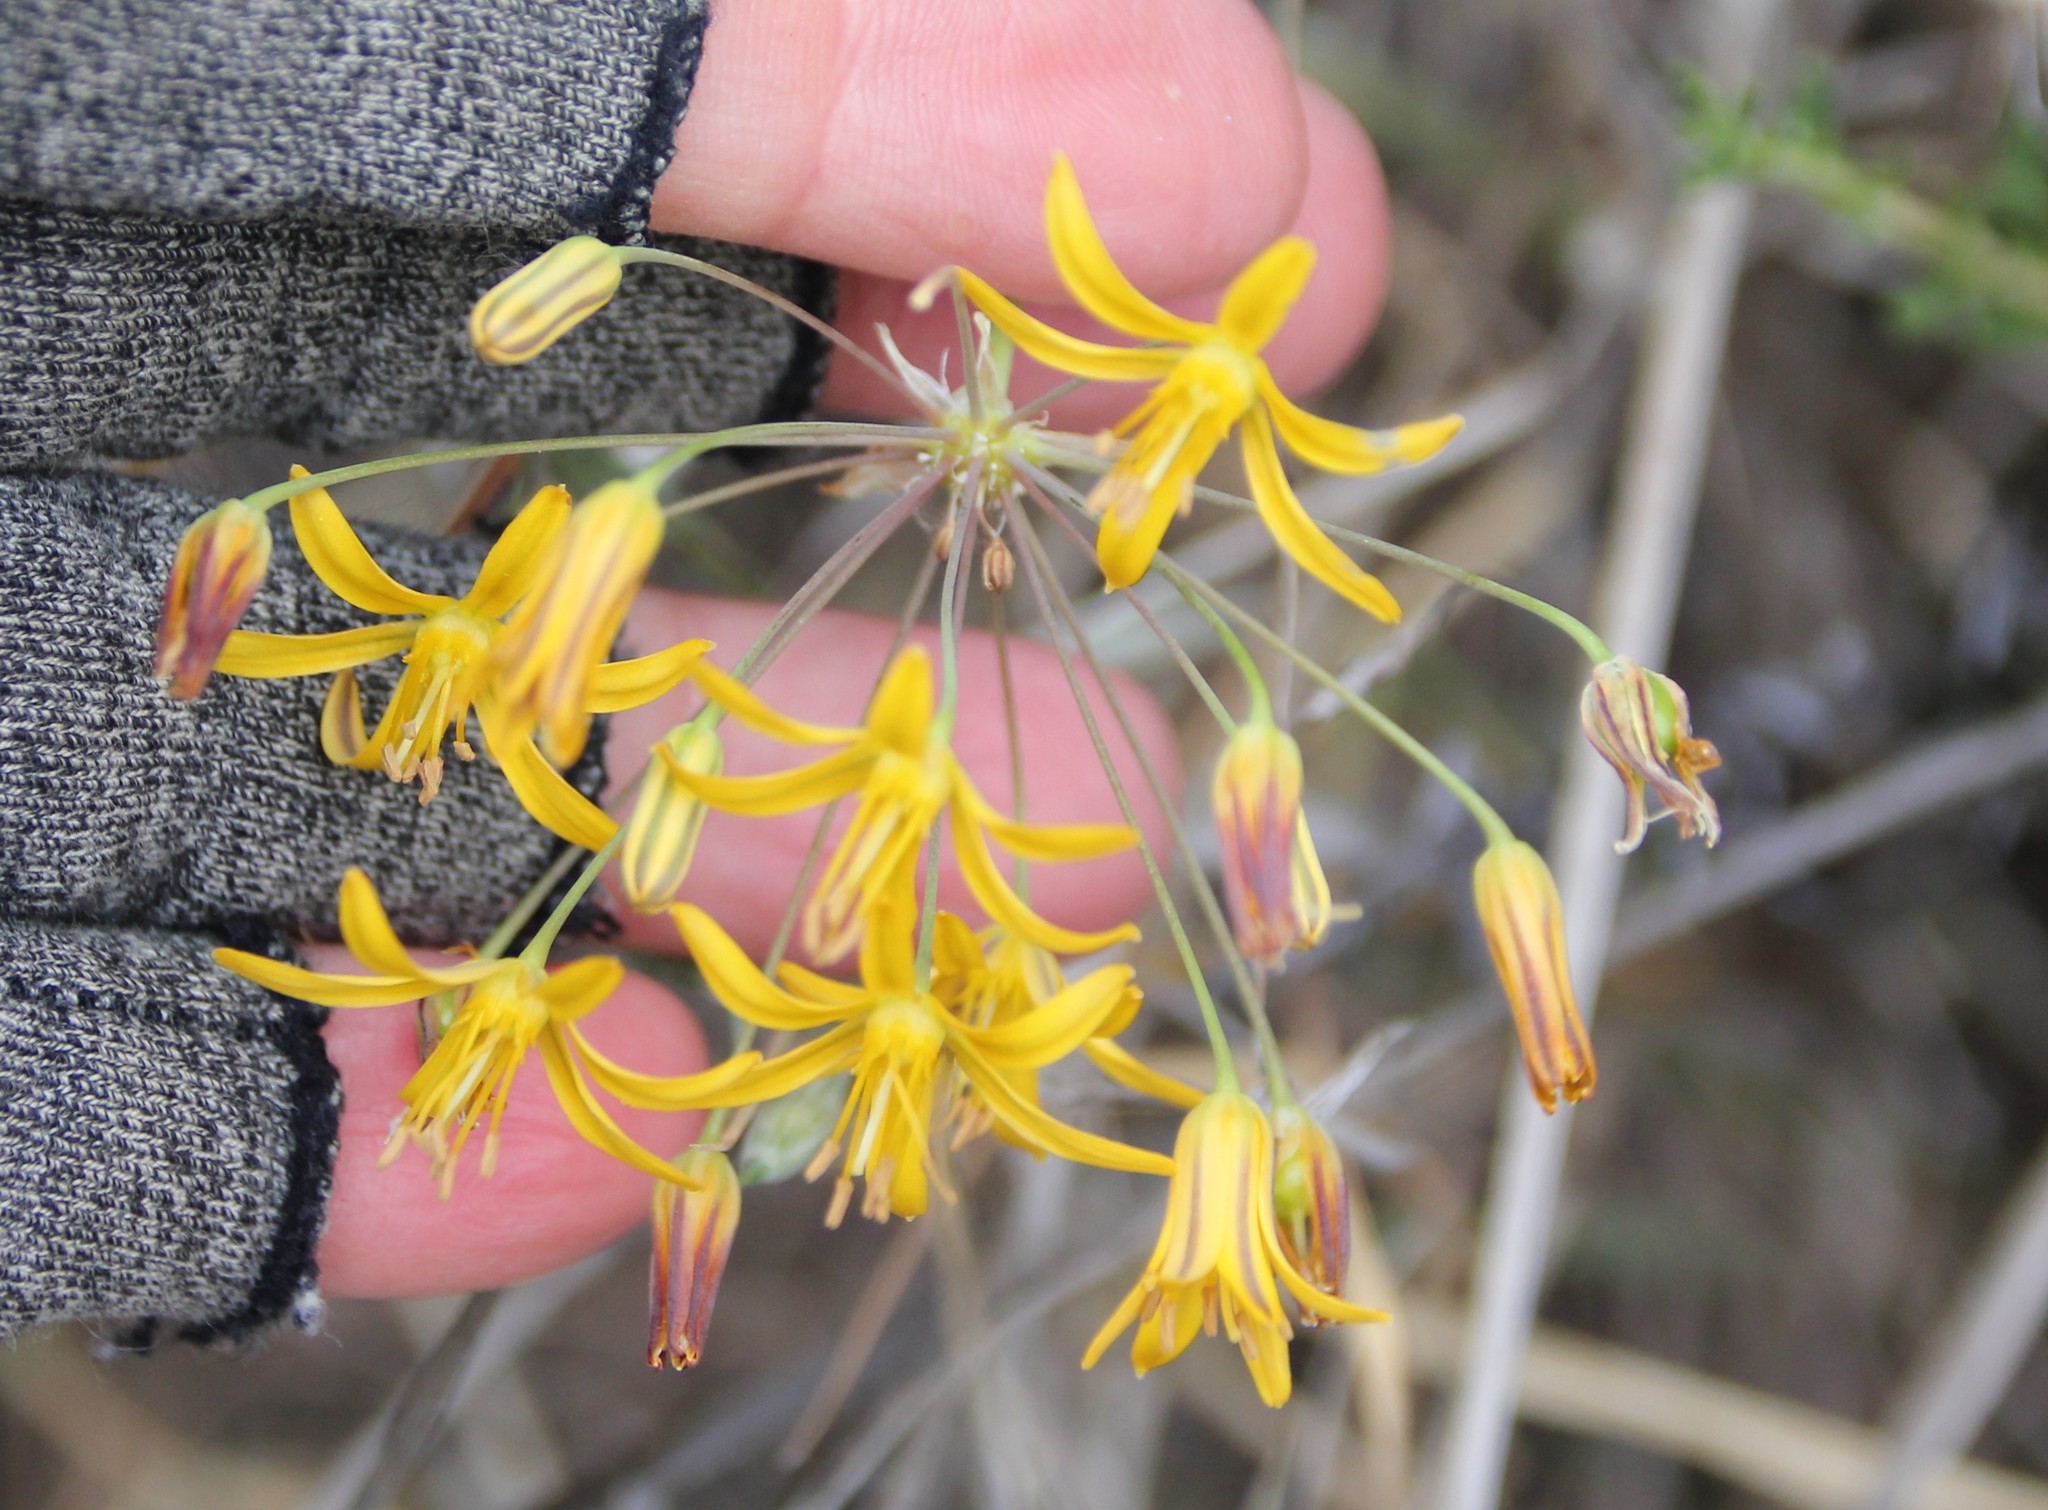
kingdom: Plantae
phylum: Tracheophyta
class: Liliopsida
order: Asparagales
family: Asparagaceae
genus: Bloomeria
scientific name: Bloomeria crocea
